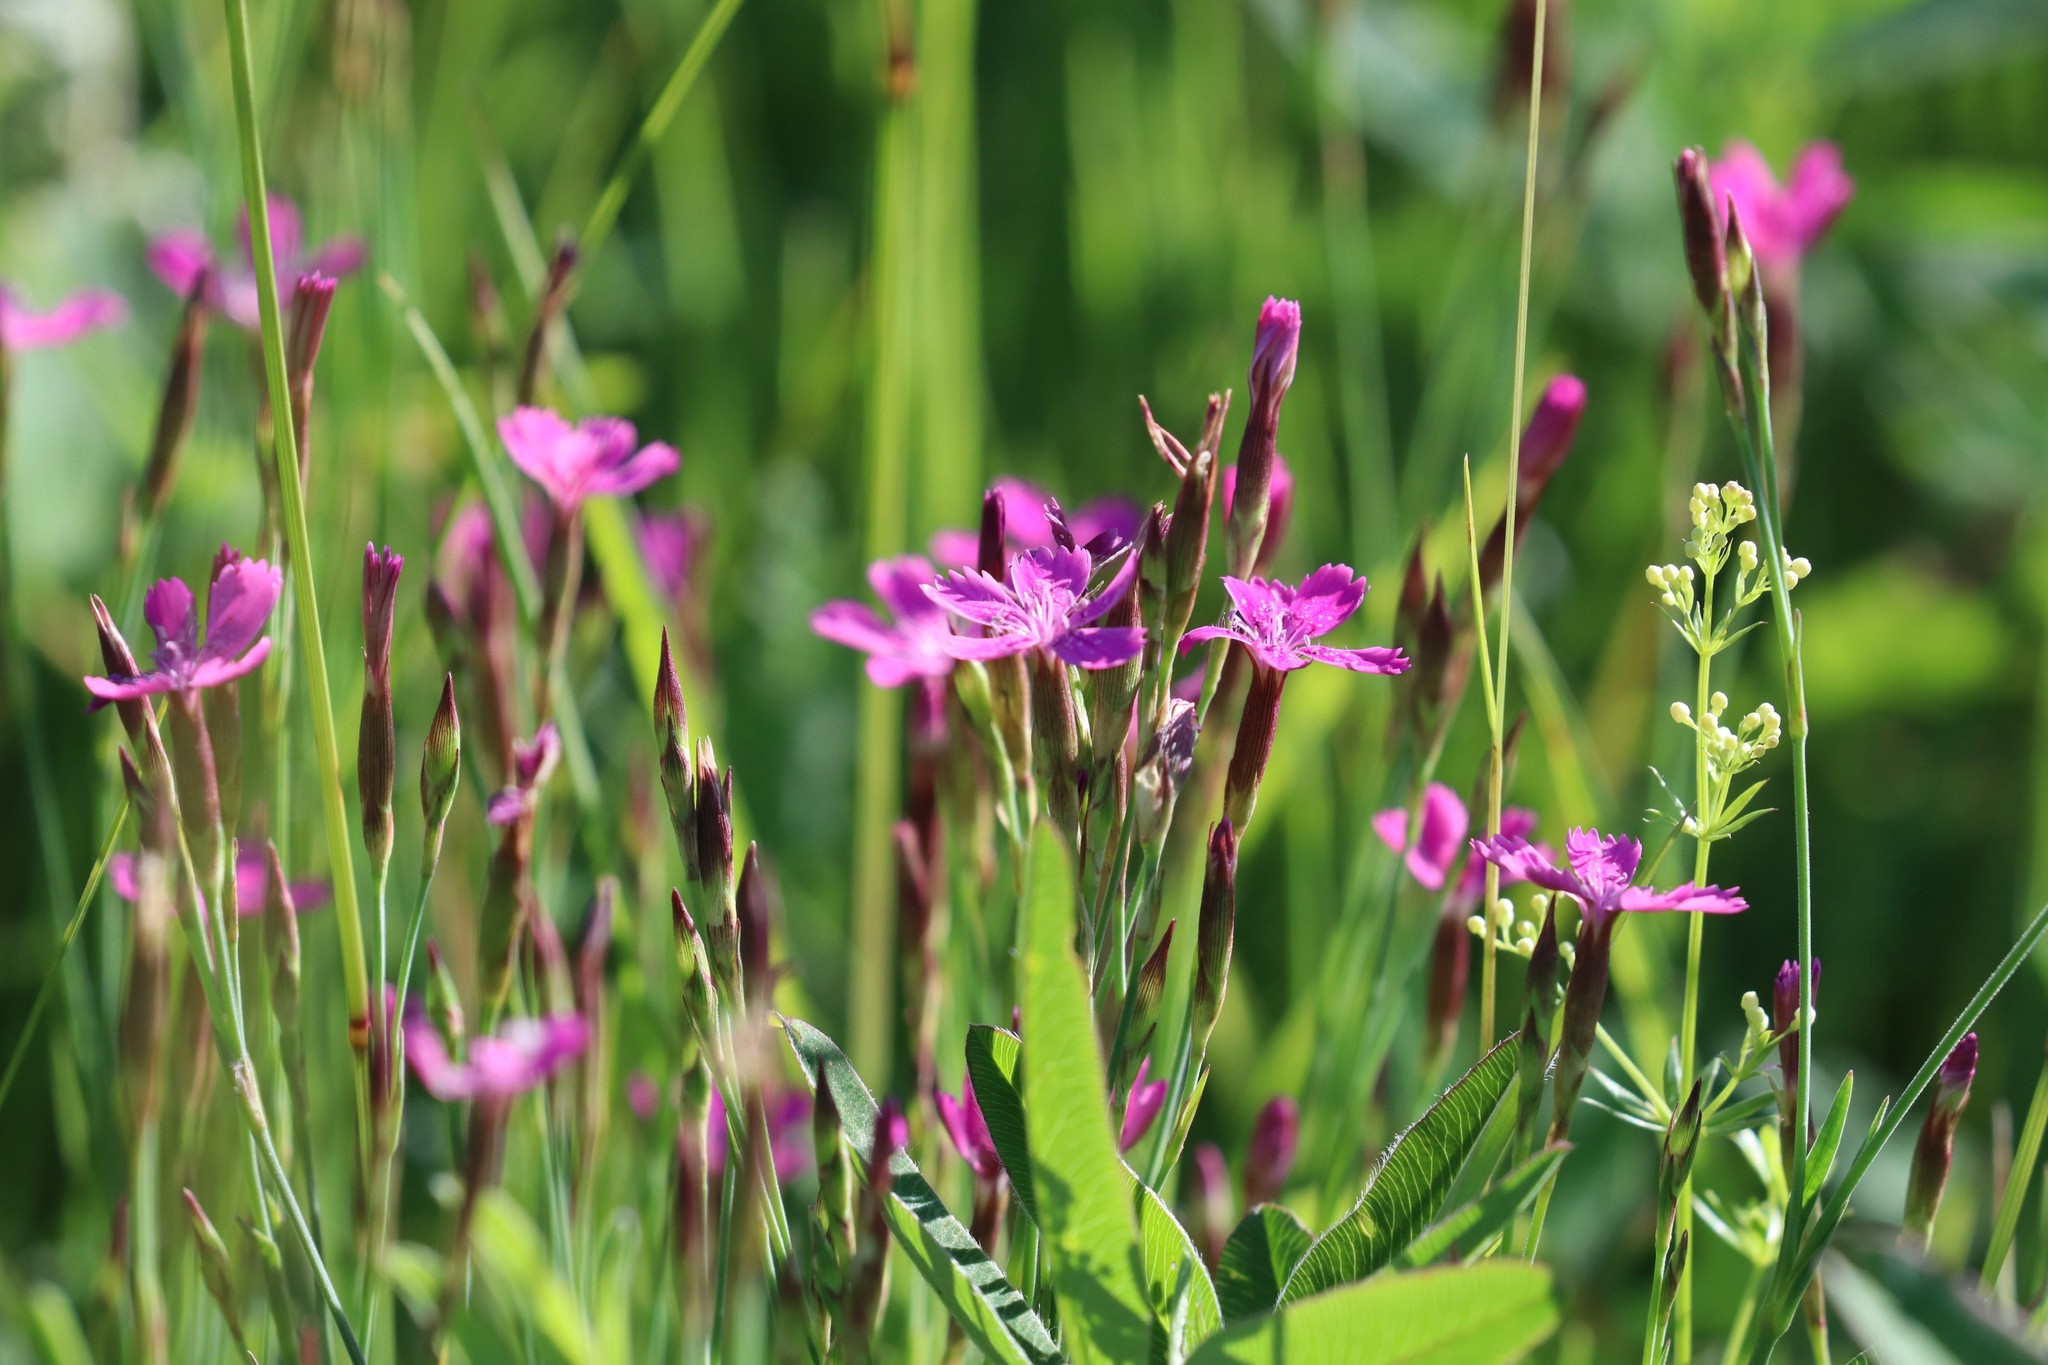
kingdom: Plantae
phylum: Tracheophyta
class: Magnoliopsida
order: Caryophyllales
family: Caryophyllaceae
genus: Dianthus
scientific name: Dianthus deltoides
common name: Maiden pink
